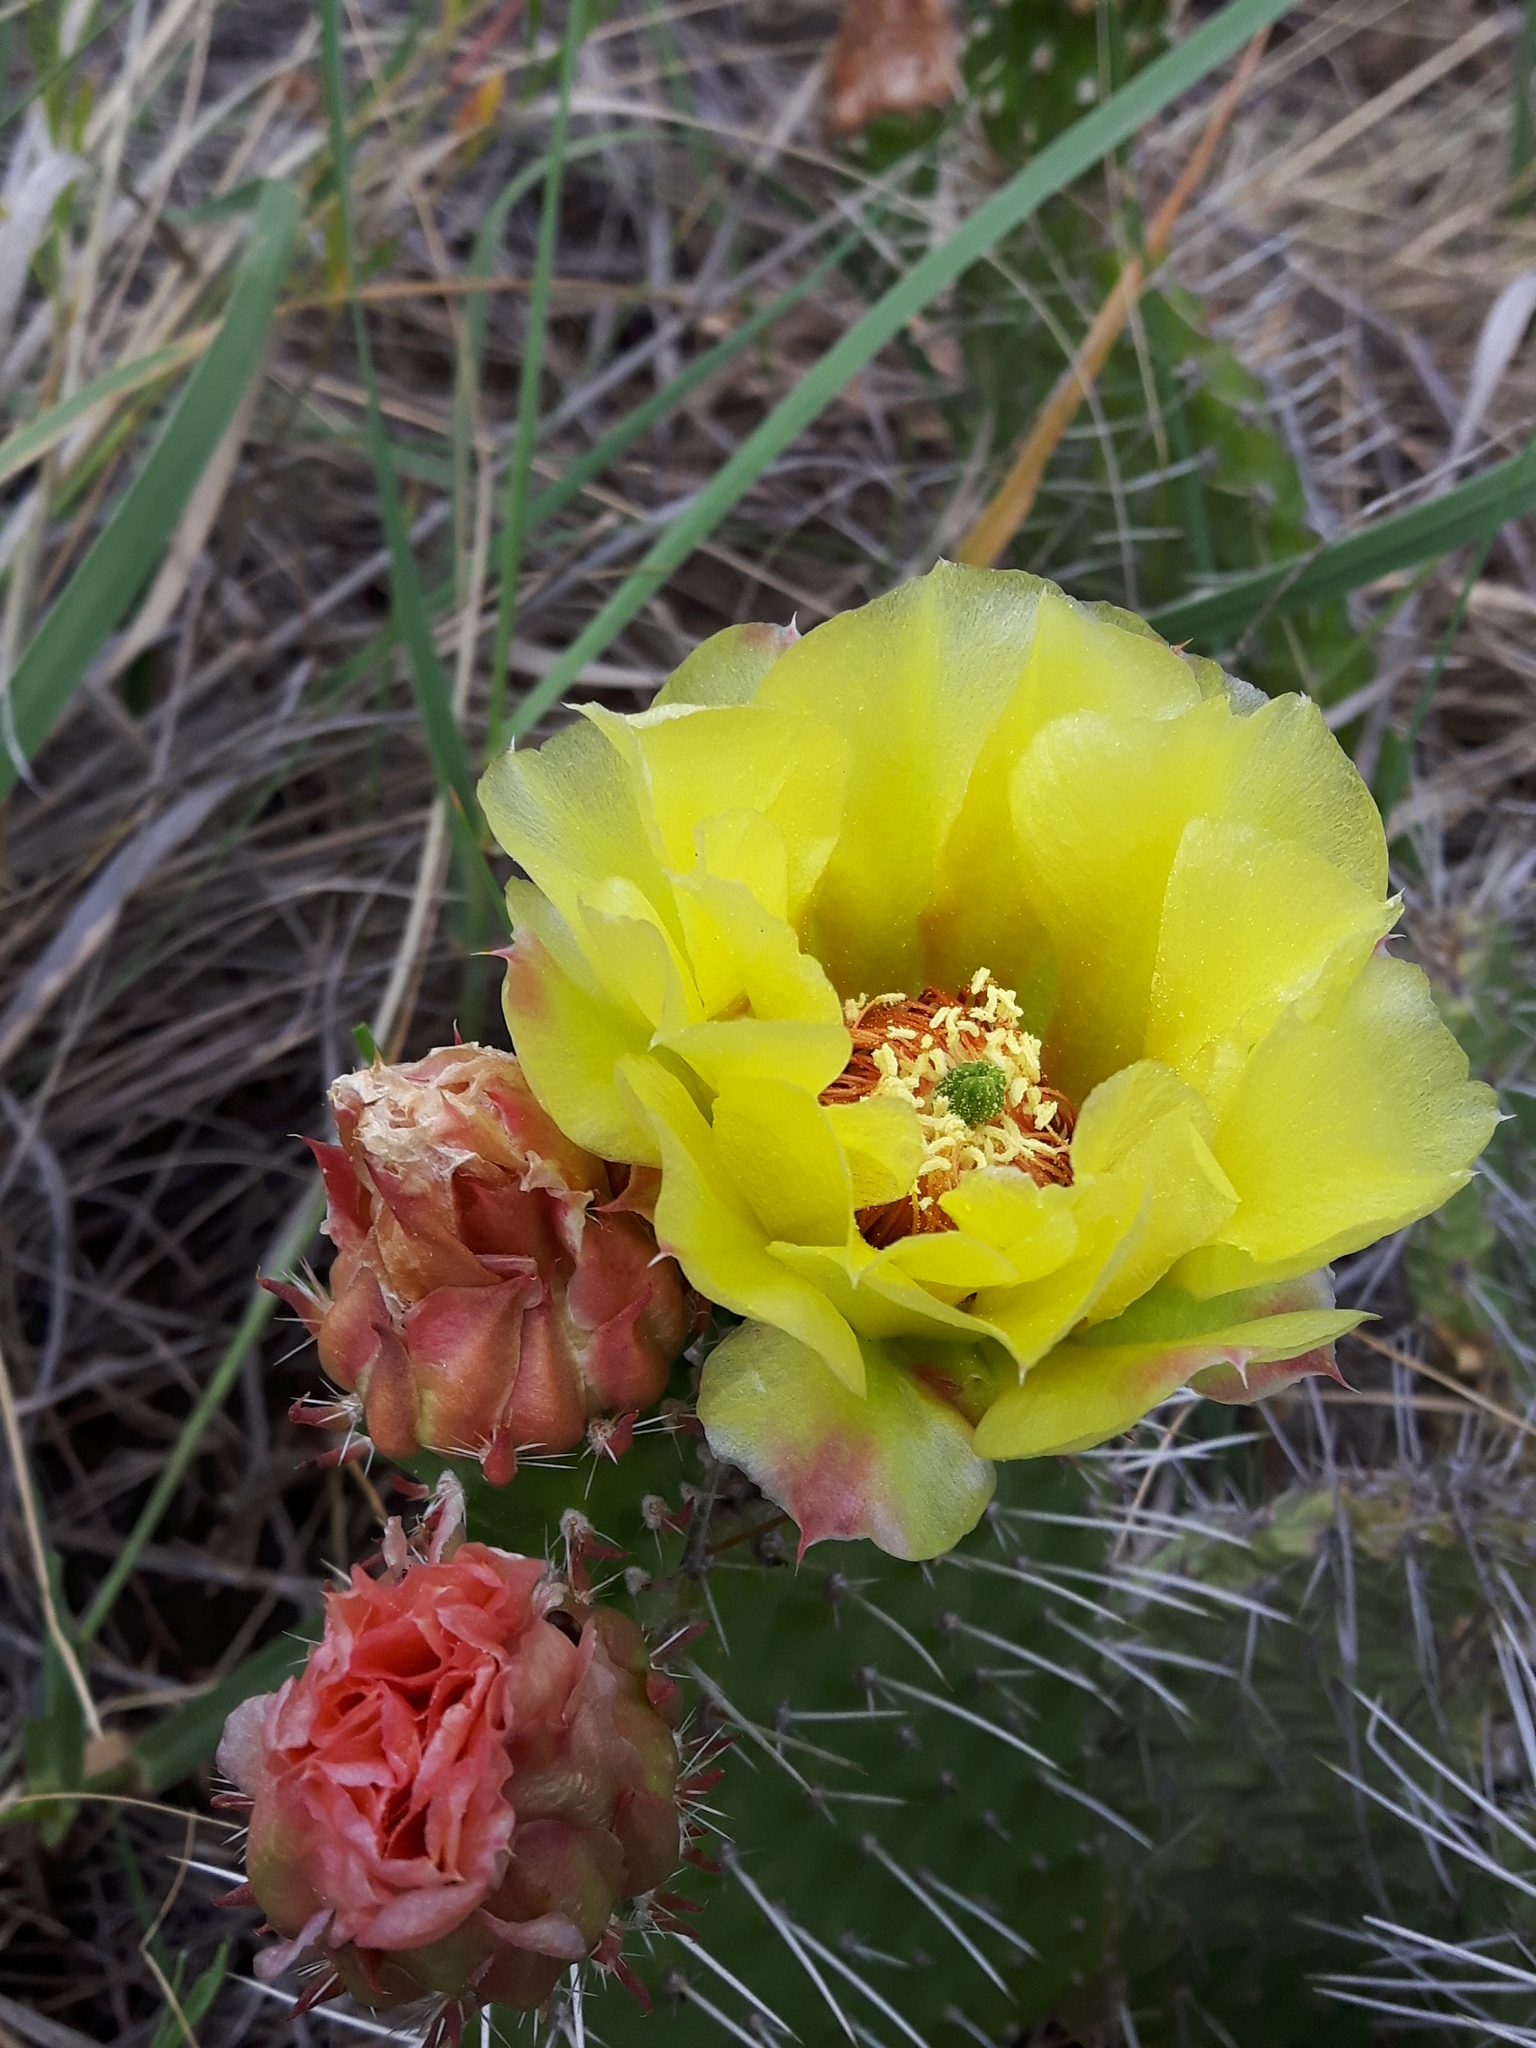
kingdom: Plantae
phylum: Tracheophyta
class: Magnoliopsida
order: Caryophyllales
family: Cactaceae
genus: Opuntia
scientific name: Opuntia polyacantha
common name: Plains prickly-pear
